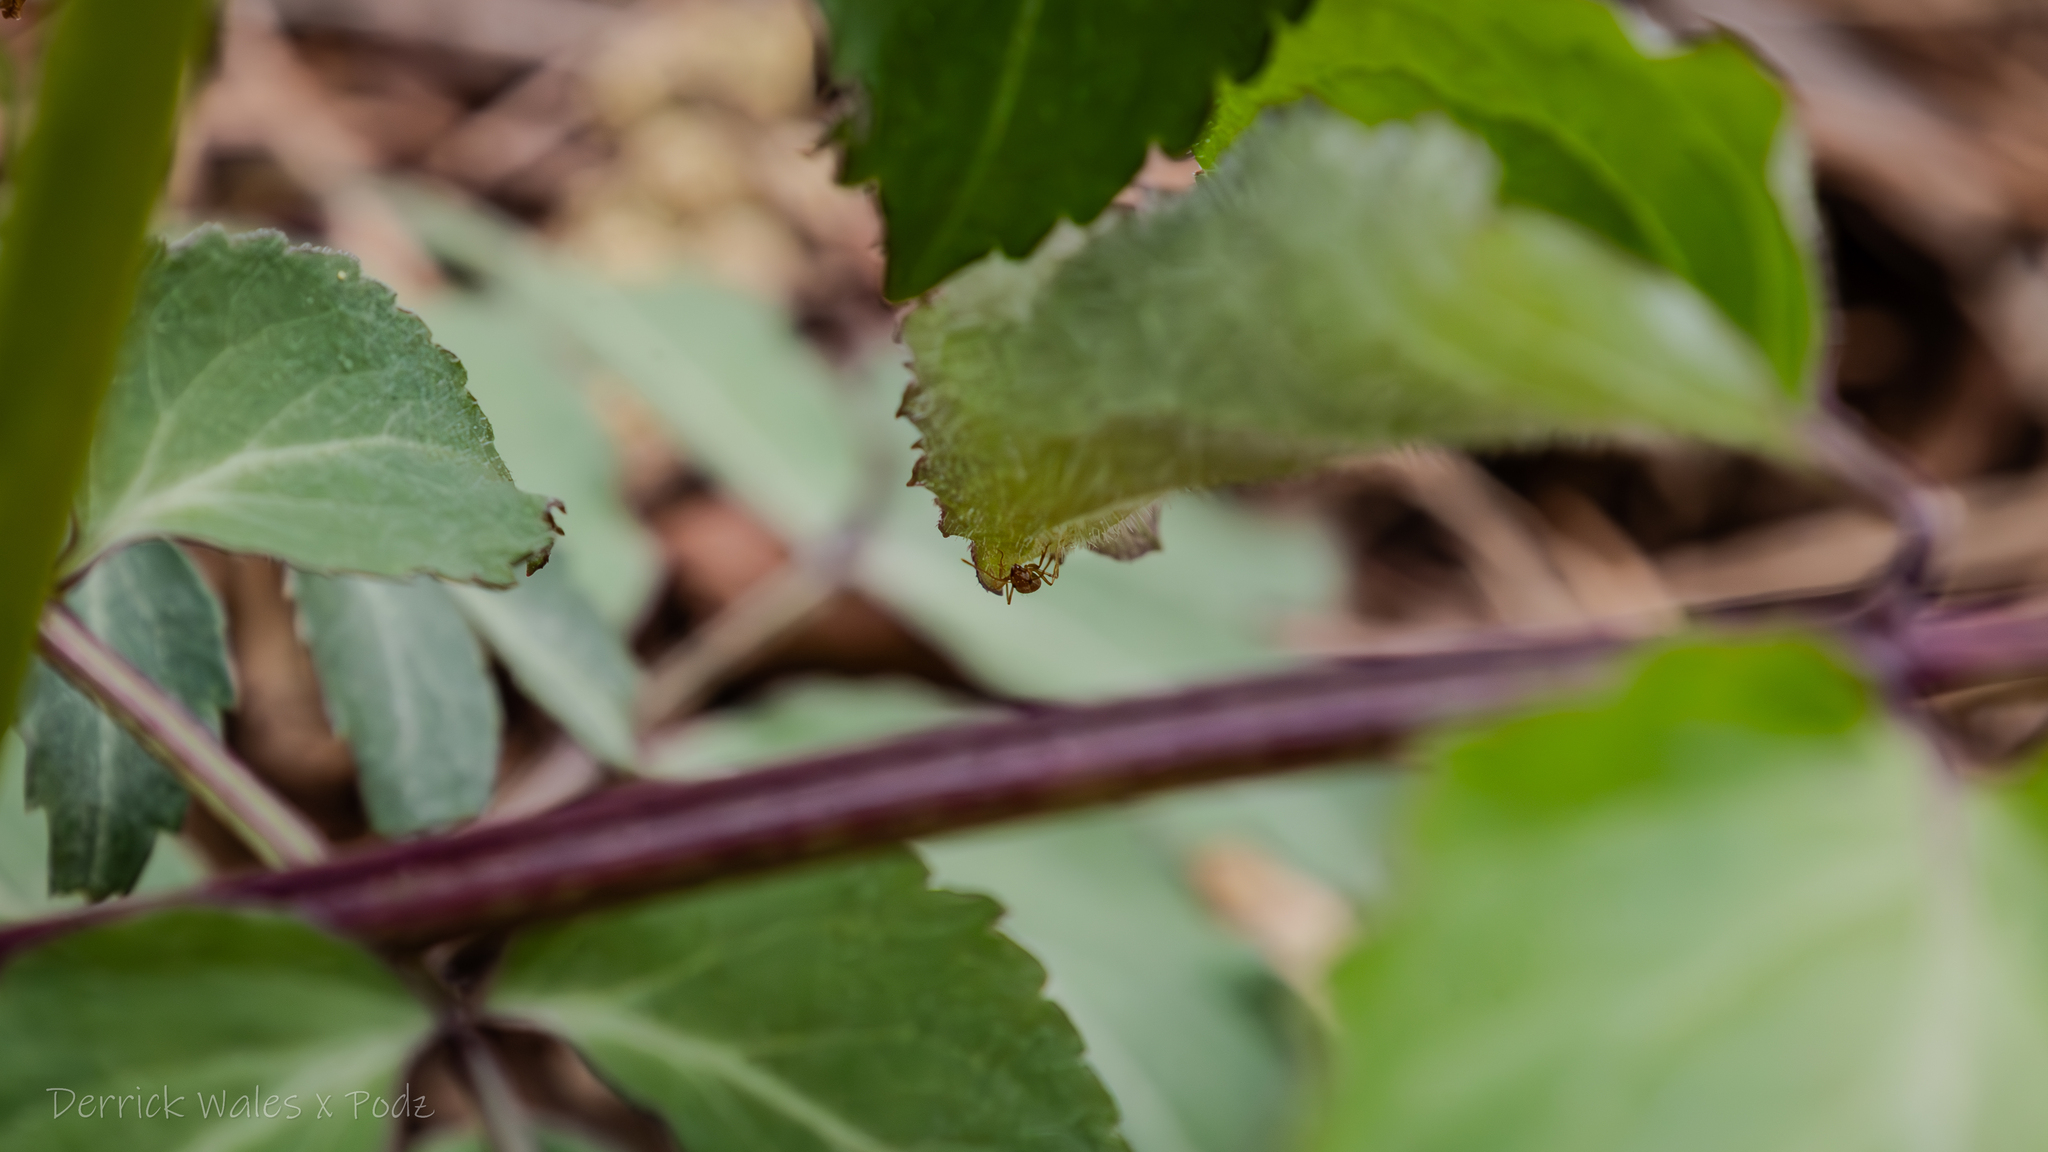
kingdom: Animalia
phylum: Arthropoda
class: Insecta
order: Hymenoptera
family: Formicidae
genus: Prenolepis
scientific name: Prenolepis imparis
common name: Small honey ant
